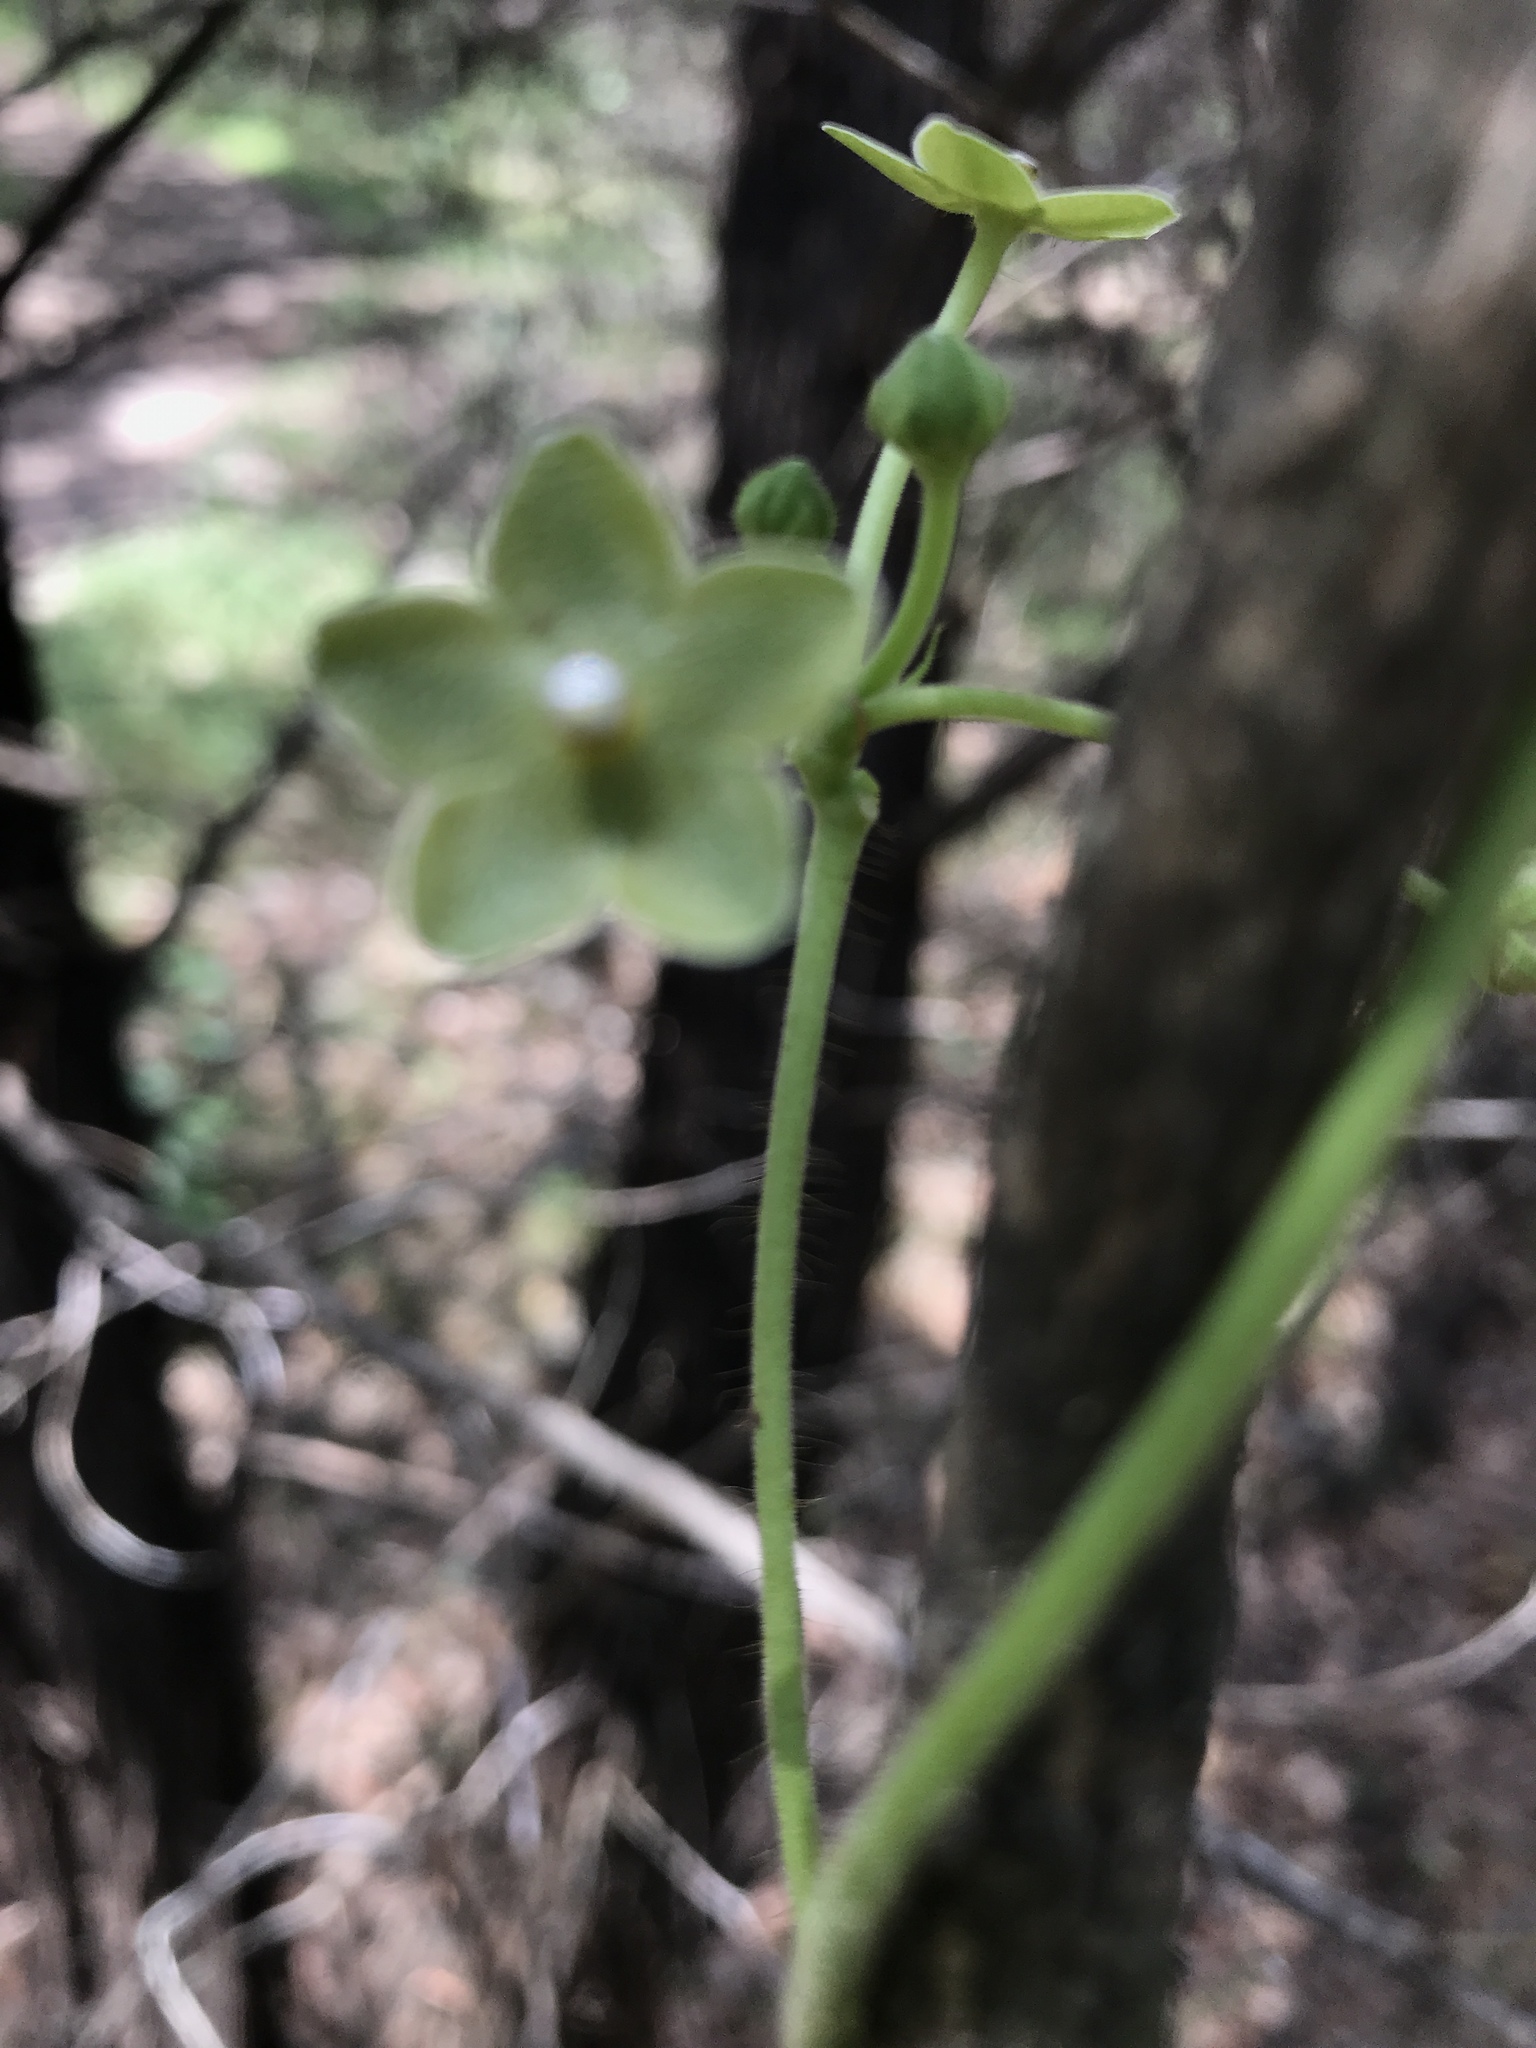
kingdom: Plantae
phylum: Tracheophyta
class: Magnoliopsida
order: Gentianales
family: Apocynaceae
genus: Dictyanthus
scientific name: Dictyanthus reticulatus
